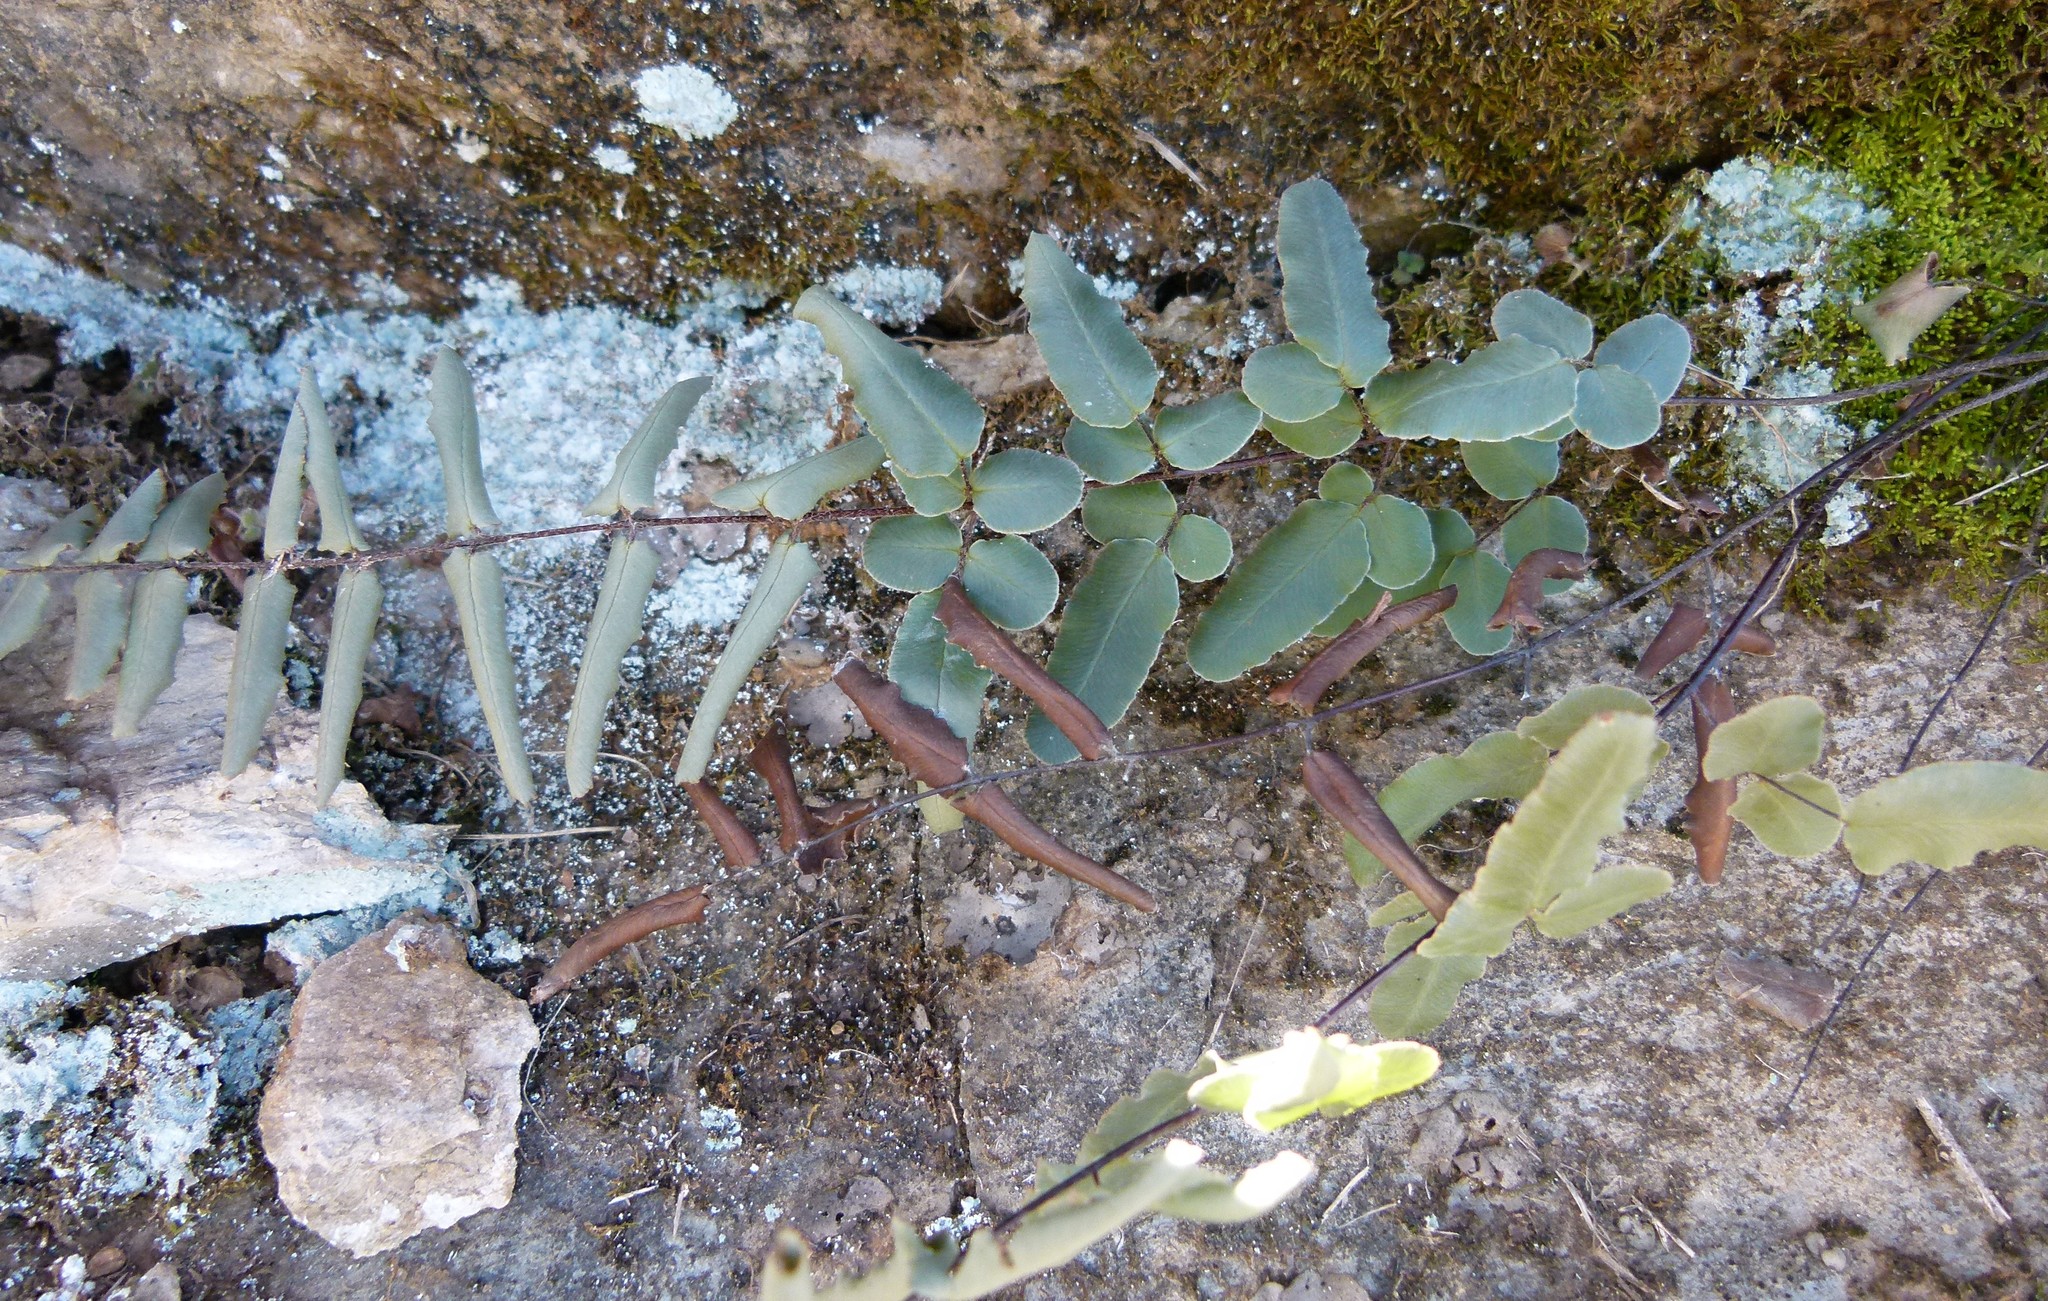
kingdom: Plantae
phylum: Tracheophyta
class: Polypodiopsida
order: Polypodiales
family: Pteridaceae
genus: Pellaea
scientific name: Pellaea atropurpurea
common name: Hairy cliffbrake
